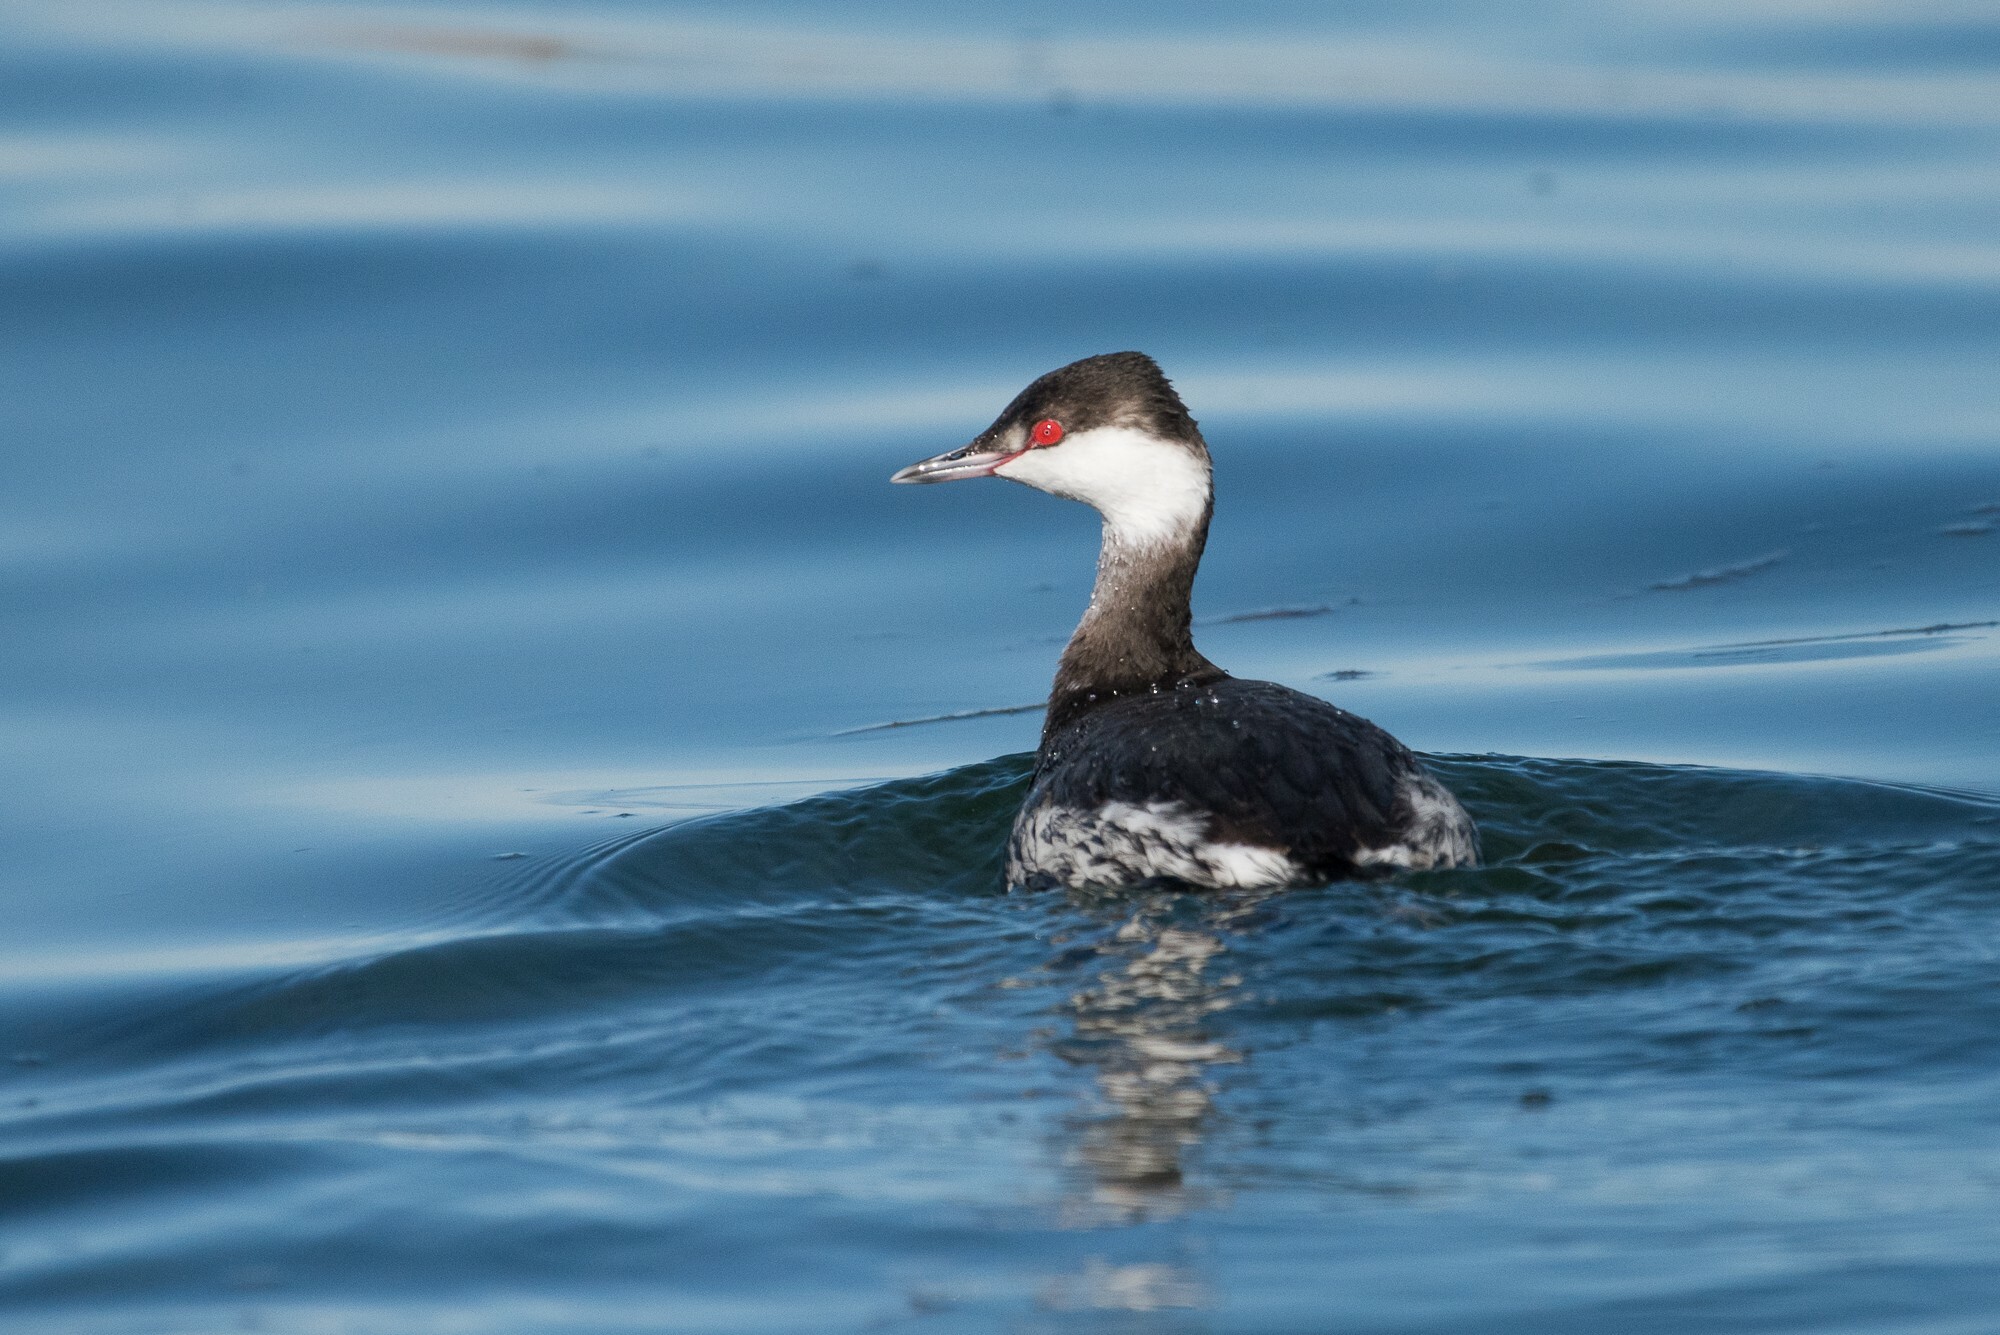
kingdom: Animalia
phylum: Chordata
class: Aves
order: Podicipediformes
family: Podicipedidae
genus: Podiceps
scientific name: Podiceps auritus
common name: Horned grebe
